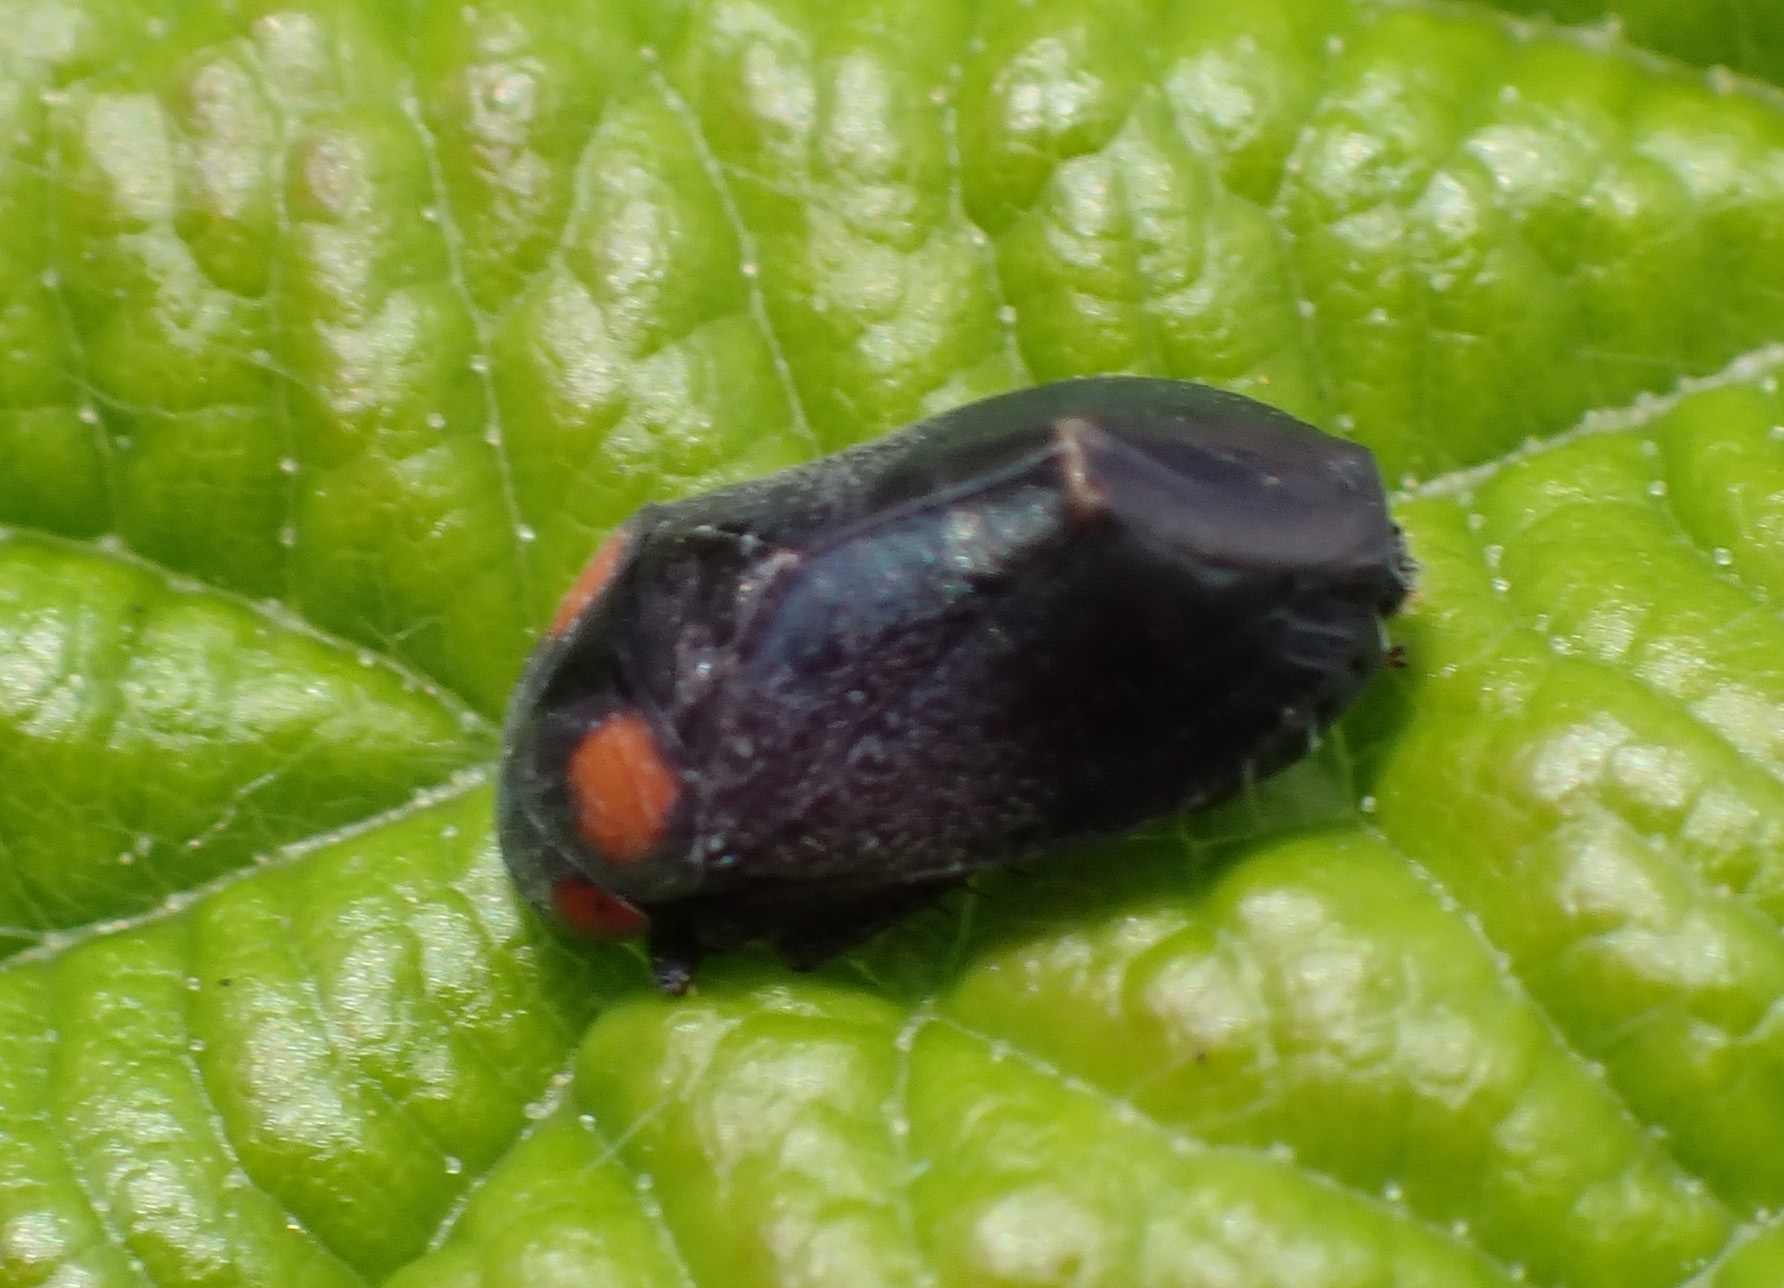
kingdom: Animalia
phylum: Arthropoda
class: Insecta
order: Hemiptera
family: Cicadellidae
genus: Penthimia
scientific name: Penthimia nigra
